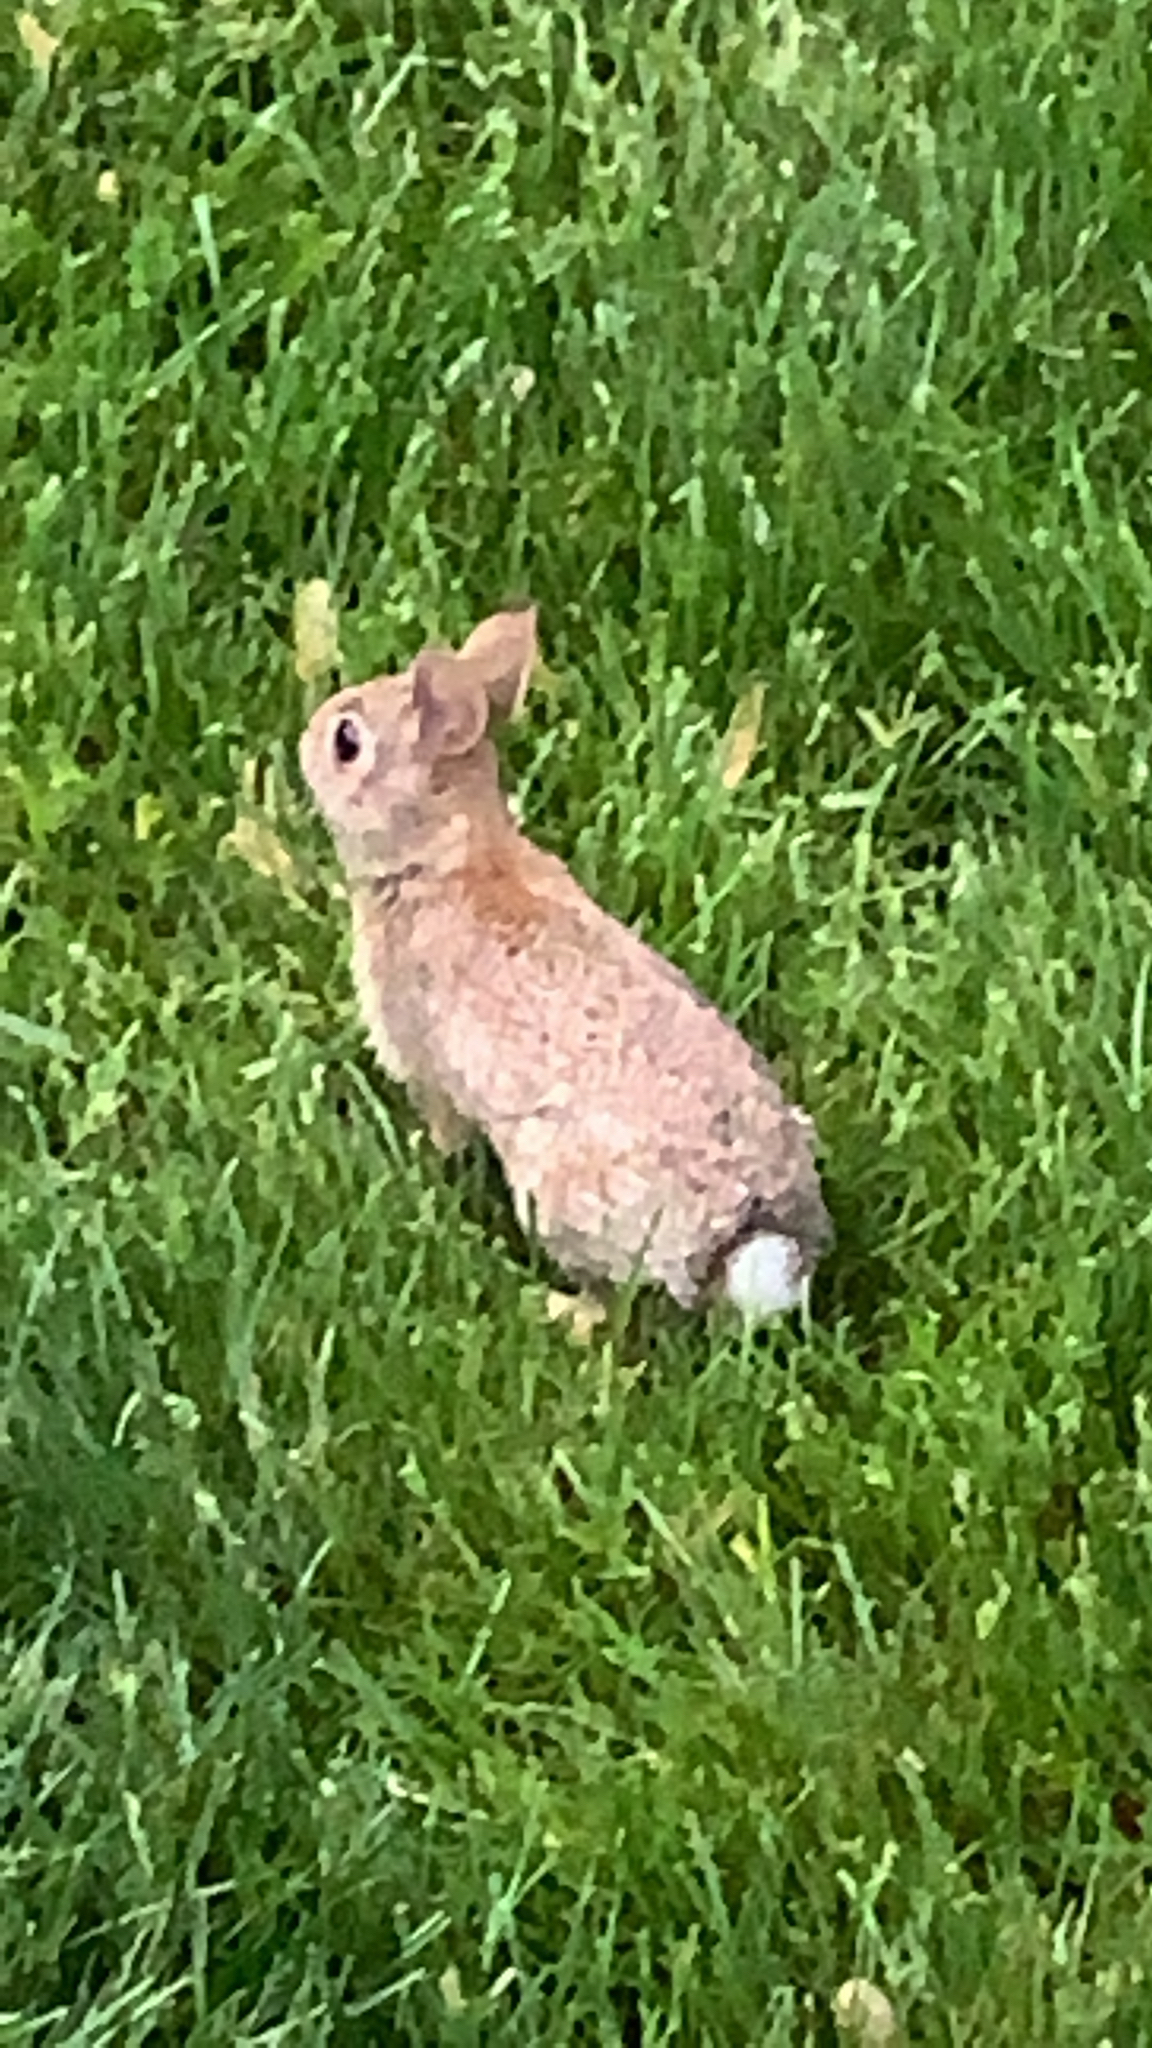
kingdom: Animalia
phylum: Chordata
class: Mammalia
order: Lagomorpha
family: Leporidae
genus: Sylvilagus
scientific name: Sylvilagus floridanus
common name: Eastern cottontail
